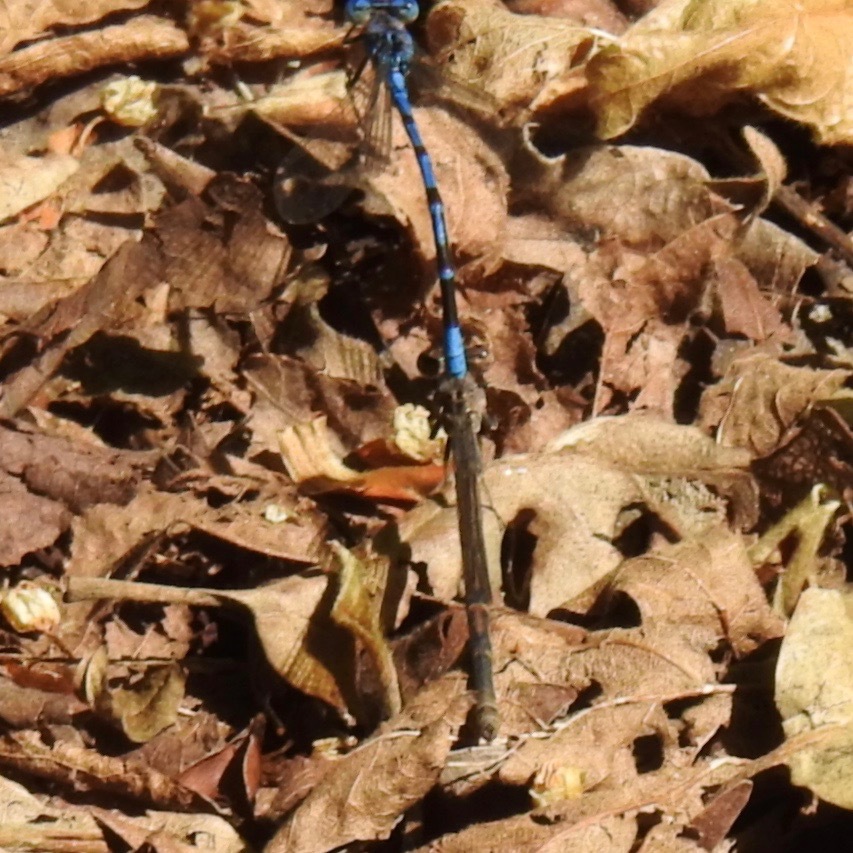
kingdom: Animalia
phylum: Arthropoda
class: Insecta
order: Odonata
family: Coenagrionidae
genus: Argia
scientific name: Argia vivida
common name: Vivid dancer
